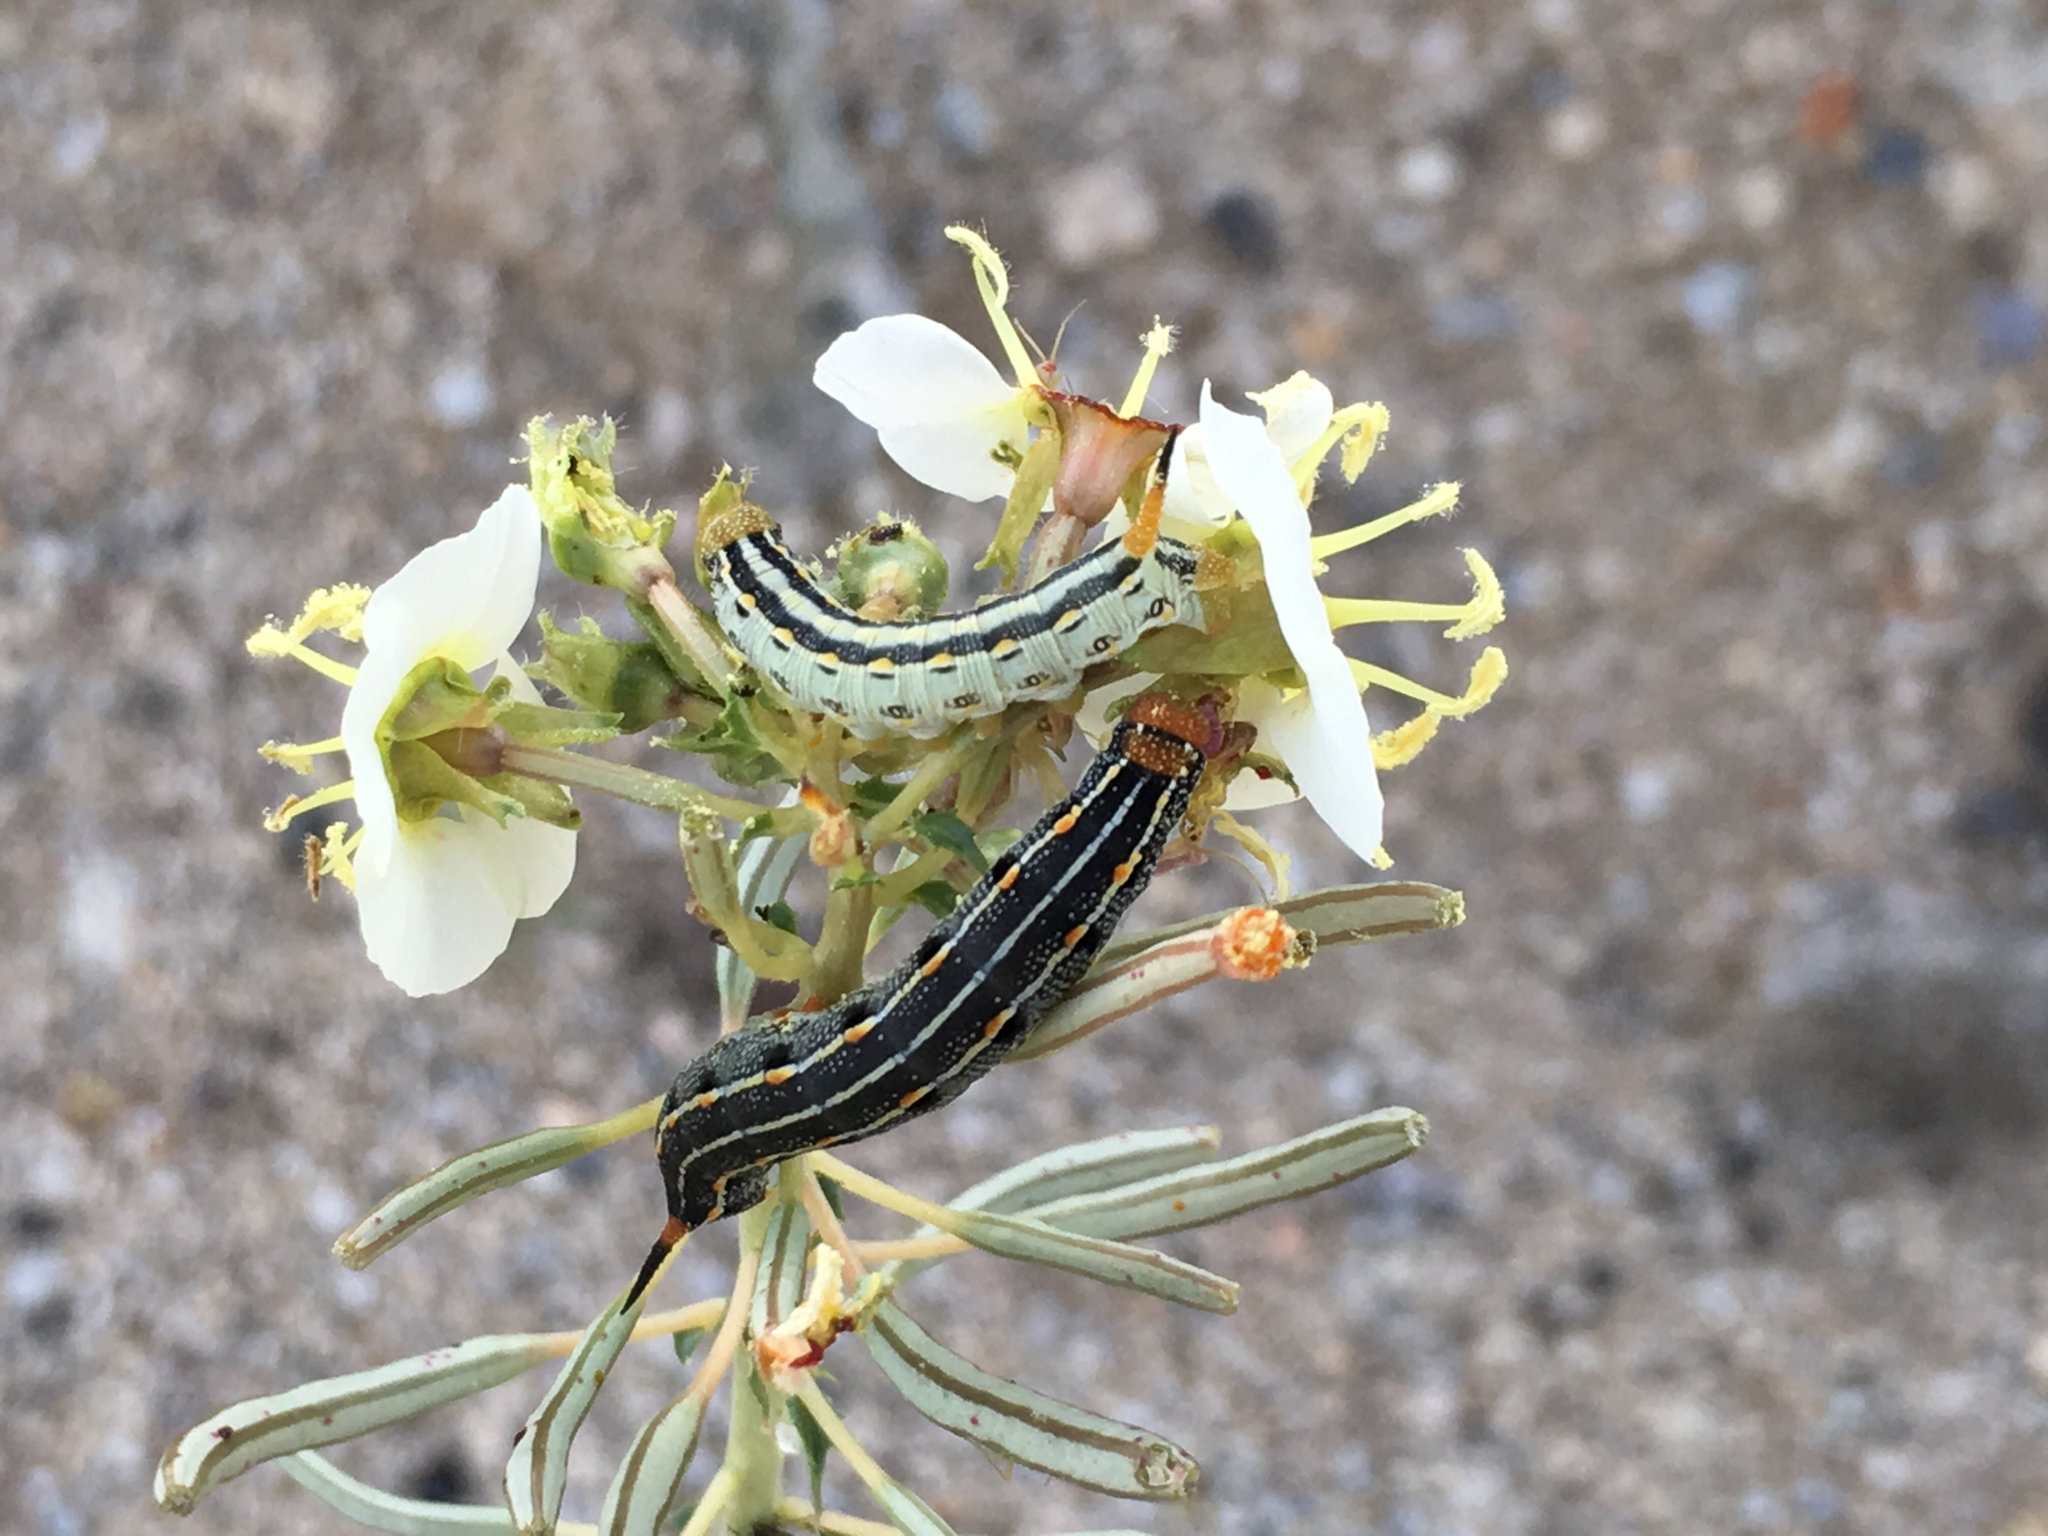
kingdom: Plantae
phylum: Tracheophyta
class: Magnoliopsida
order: Myrtales
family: Onagraceae
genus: Chylismia
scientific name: Chylismia claviformis
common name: Browneyes
